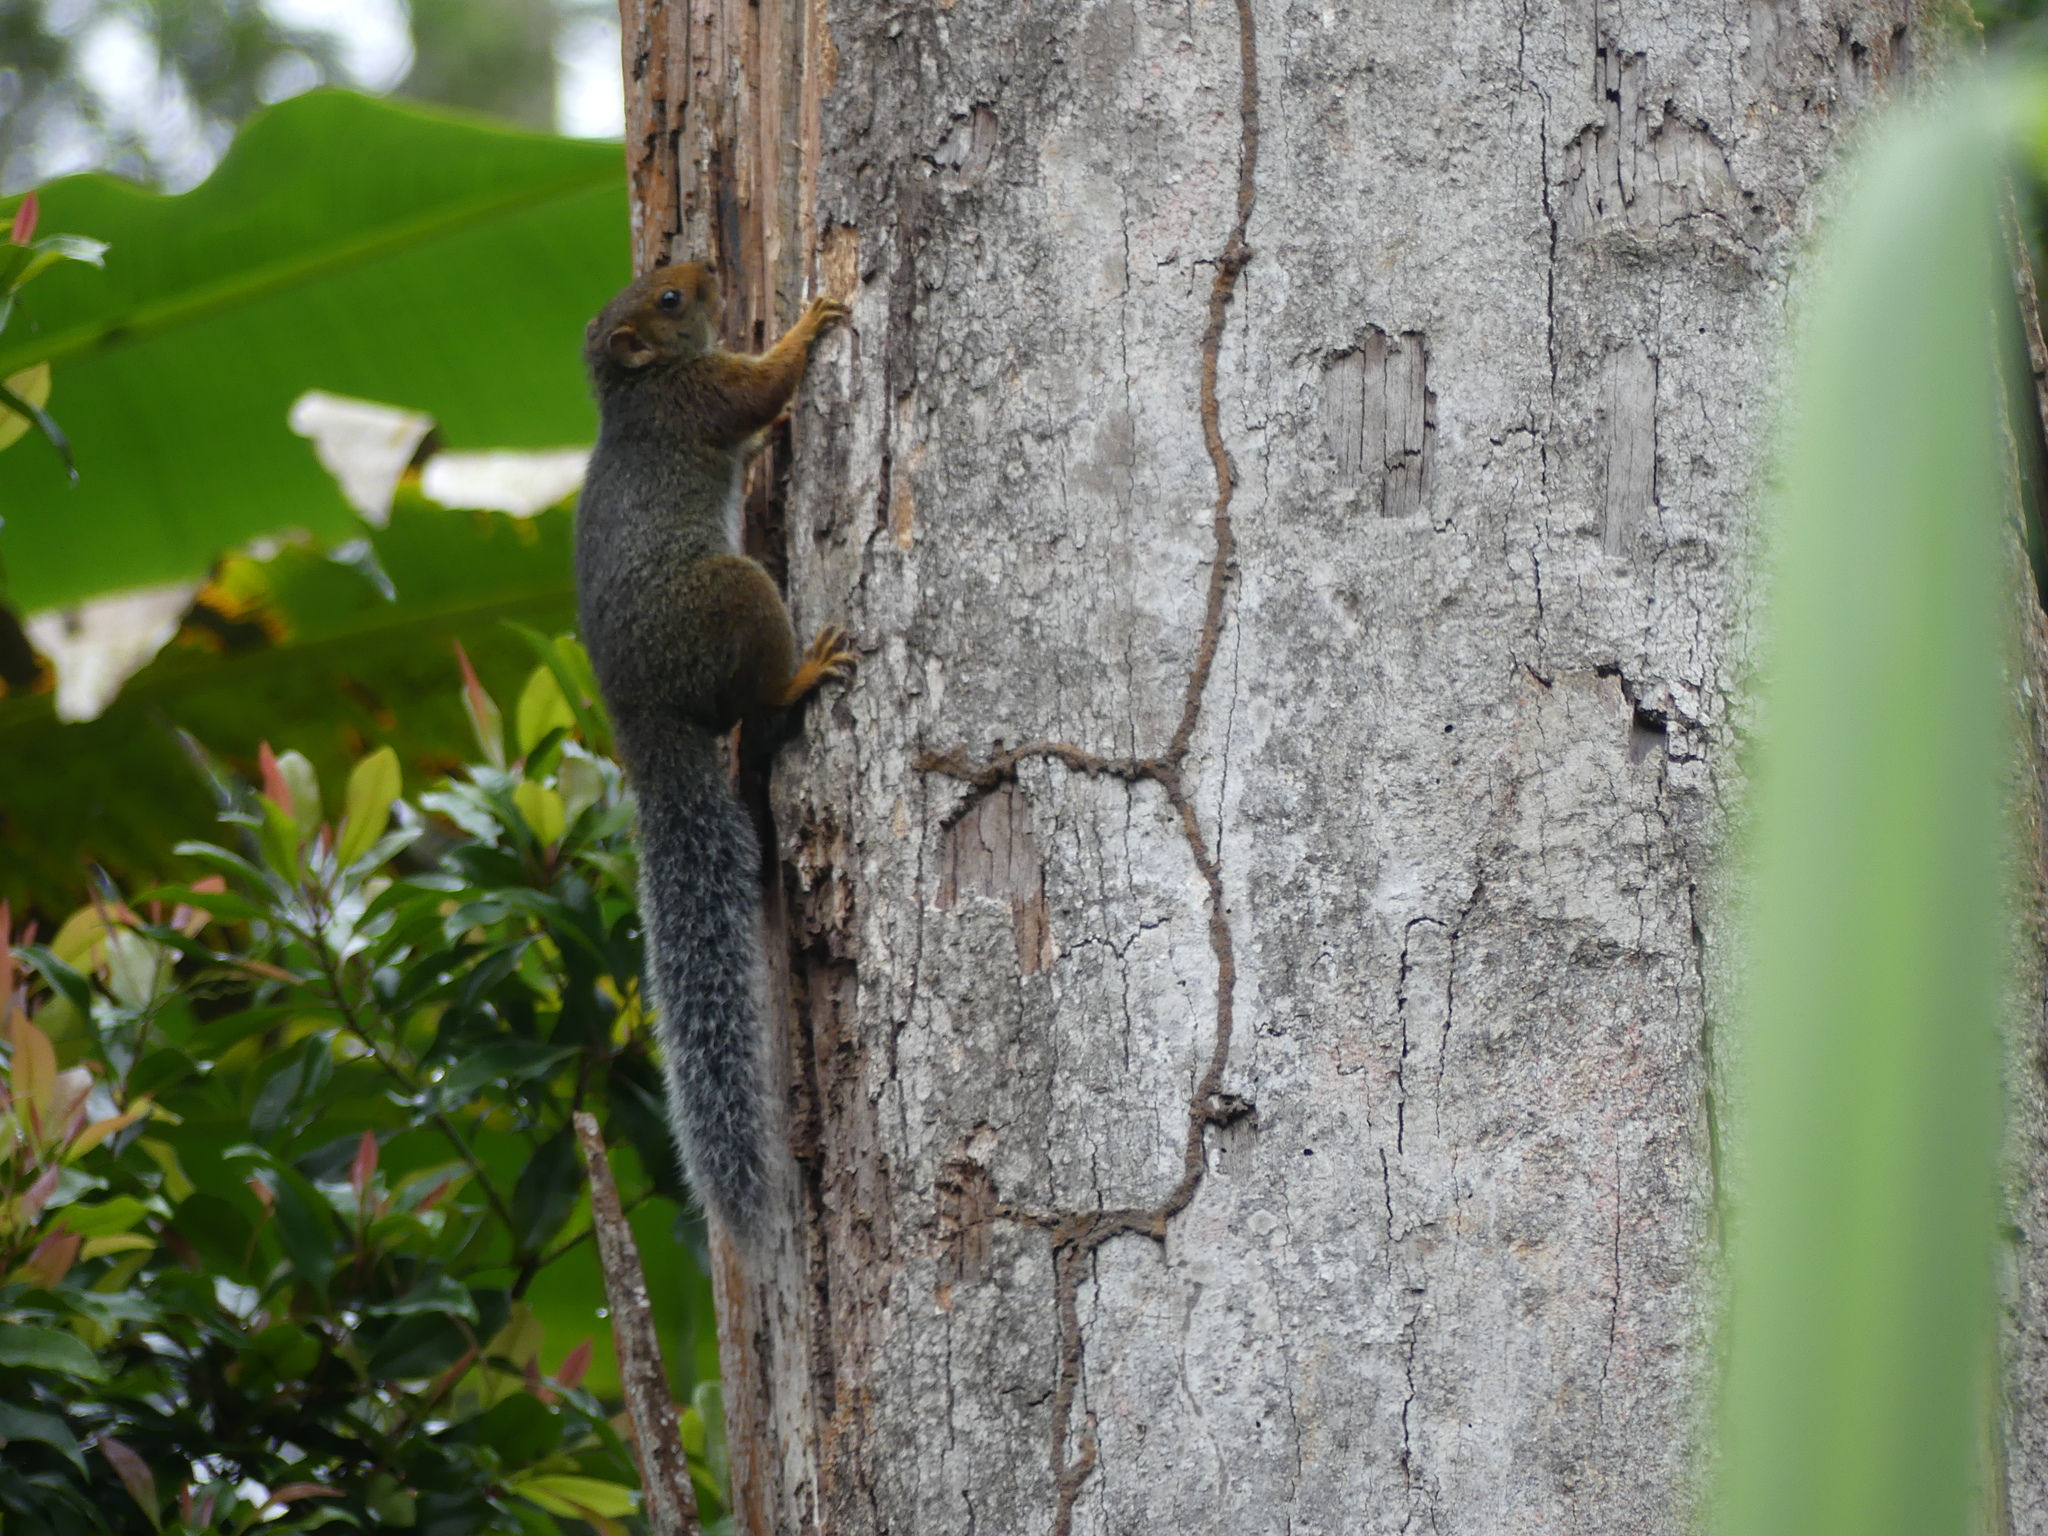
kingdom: Animalia
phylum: Chordata
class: Mammalia
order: Rodentia
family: Sciuridae
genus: Paraxerus
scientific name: Paraxerus vexillarius
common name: Svynnerton's bush squirrel
